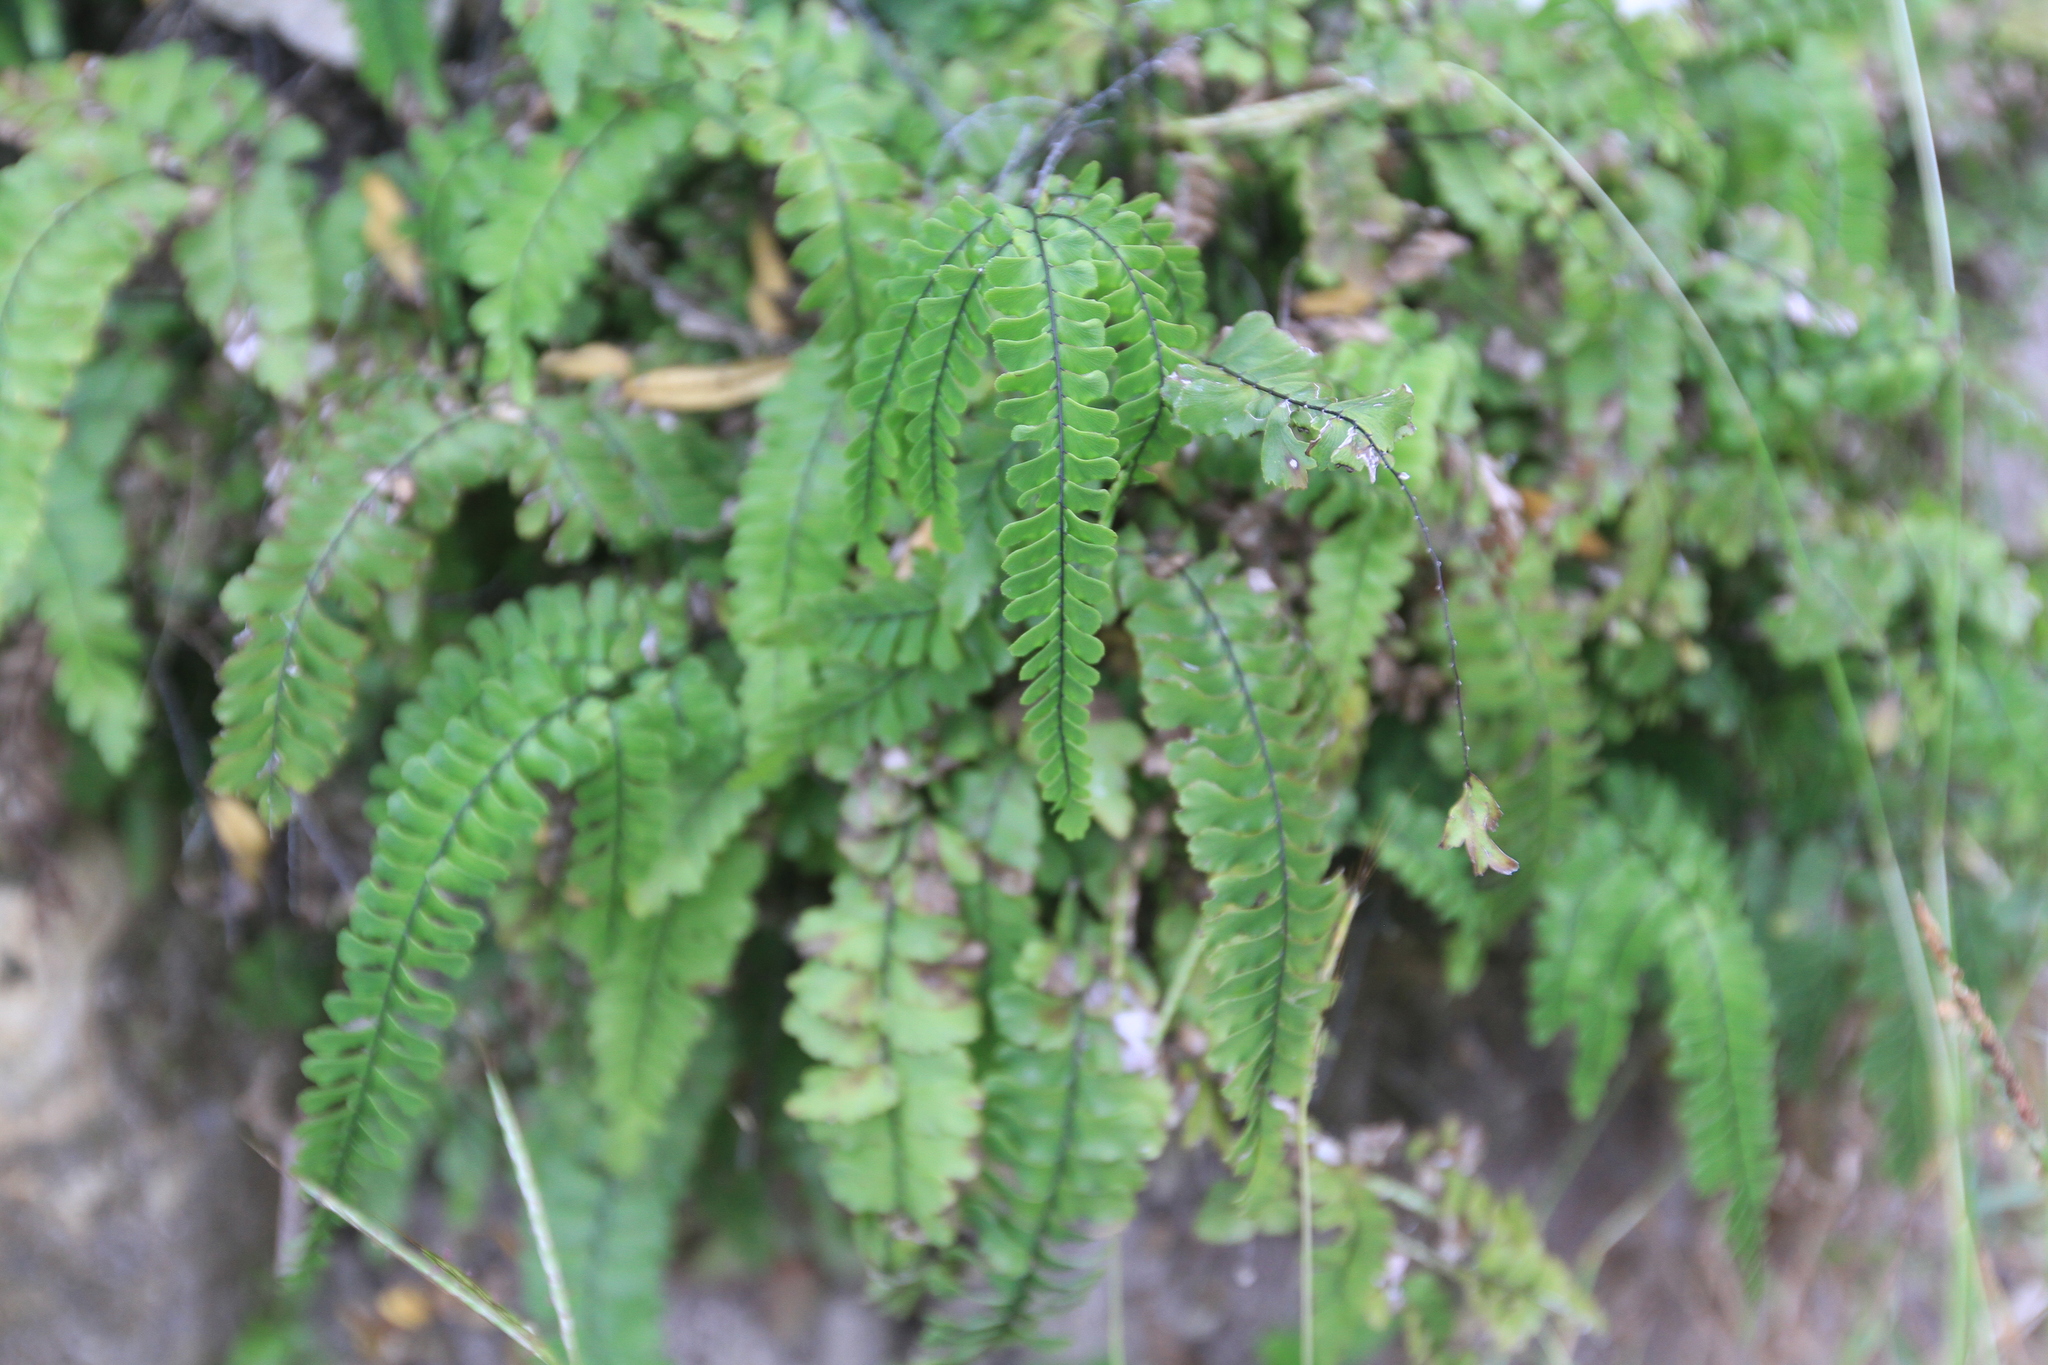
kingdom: Plantae
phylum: Tracheophyta
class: Polypodiopsida
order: Polypodiales
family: Pteridaceae
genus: Adiantum
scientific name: Adiantum melanoleucum
